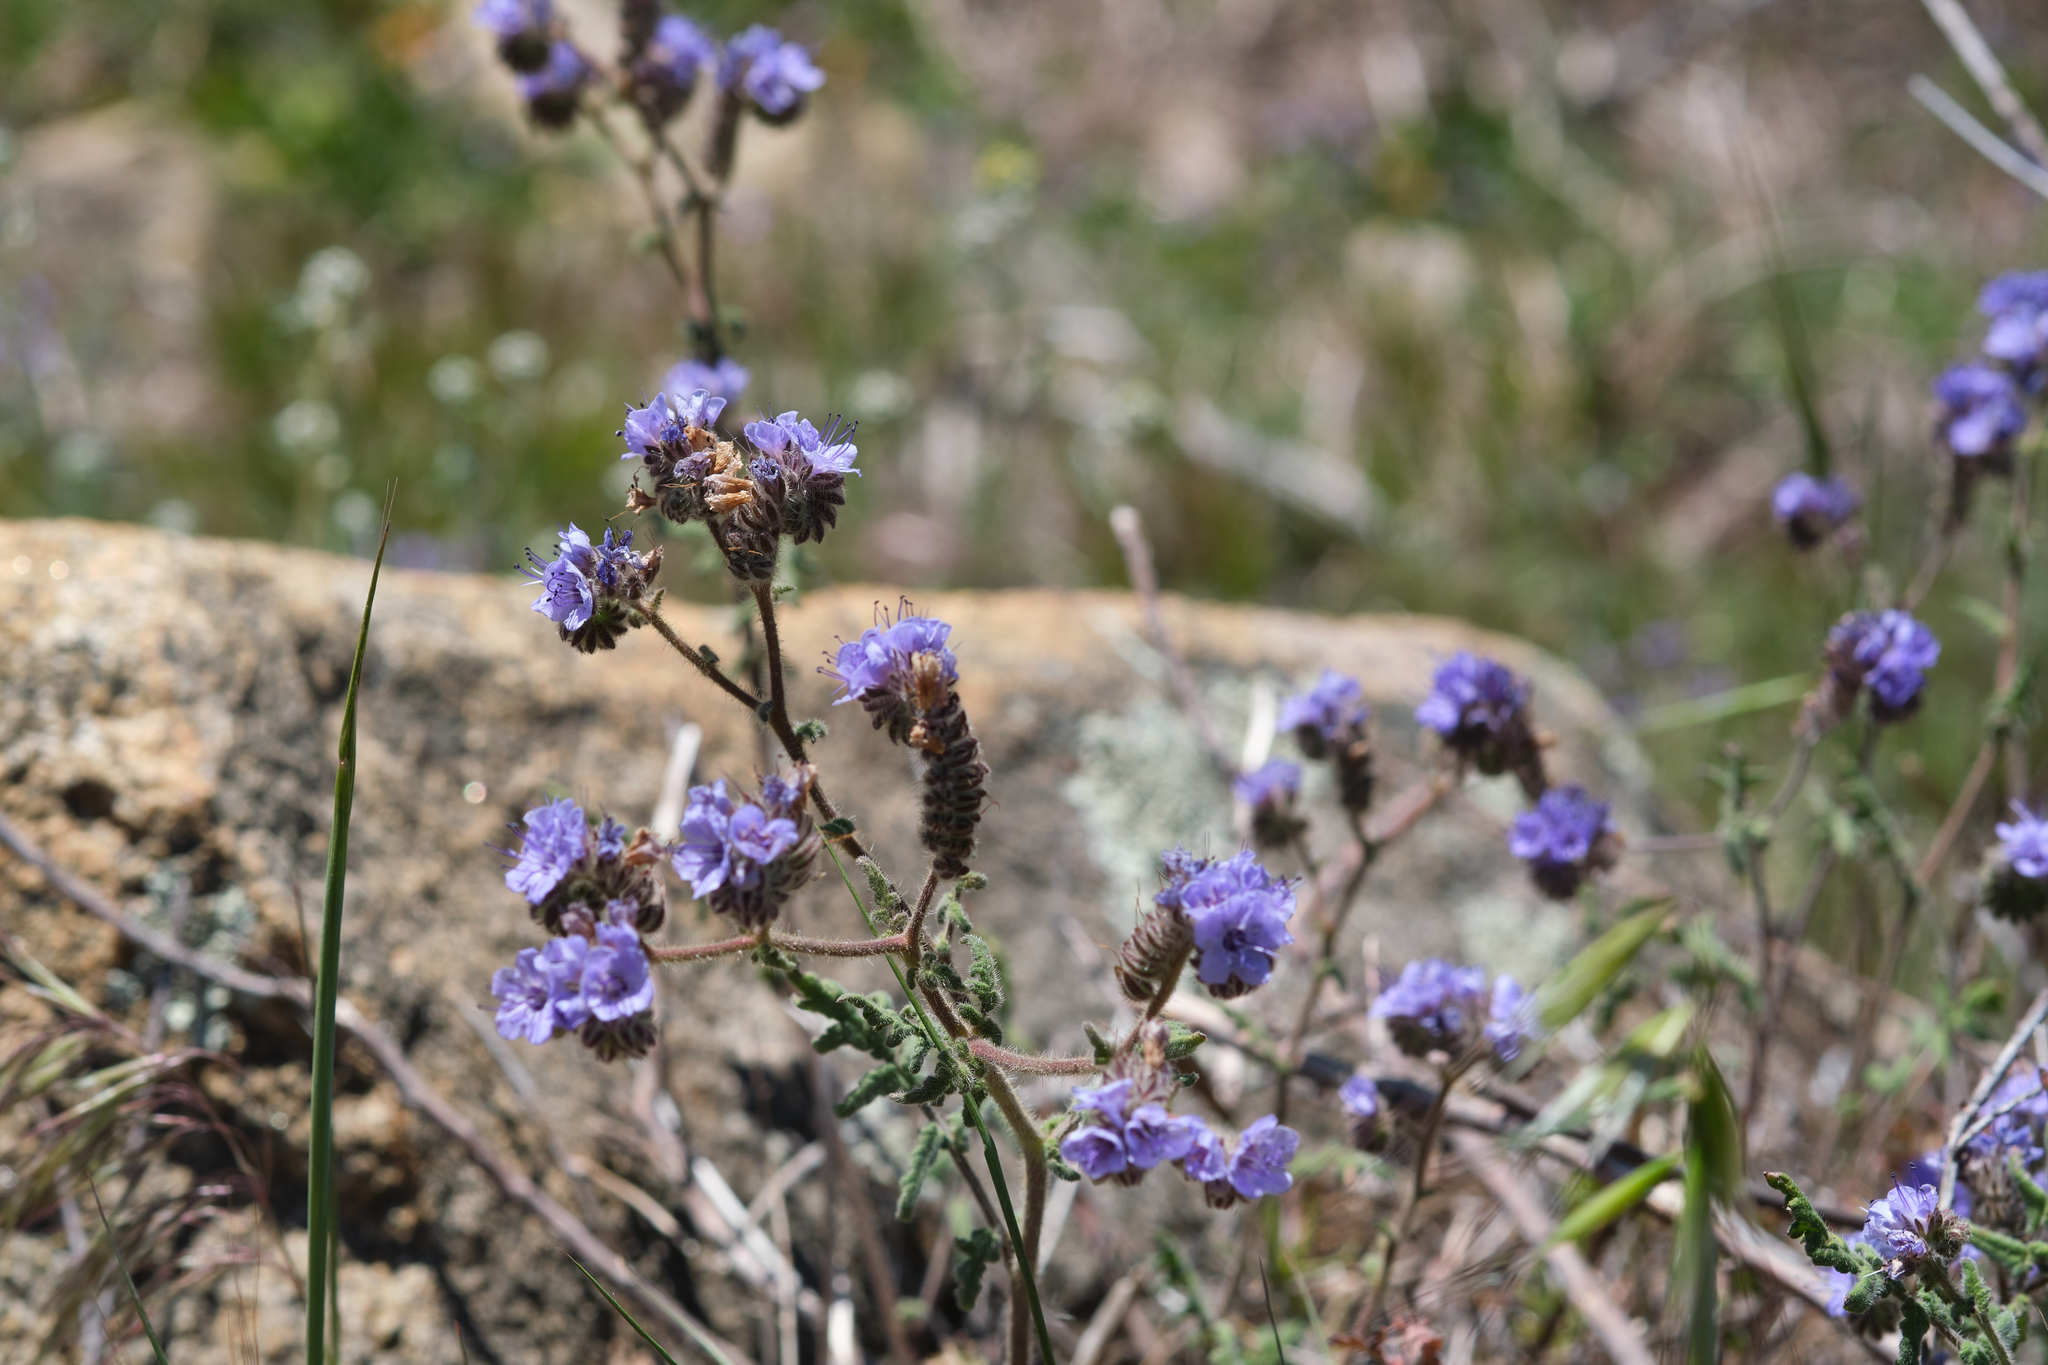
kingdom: Plantae
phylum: Tracheophyta
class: Magnoliopsida
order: Boraginales
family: Hydrophyllaceae
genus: Phacelia
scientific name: Phacelia distans
